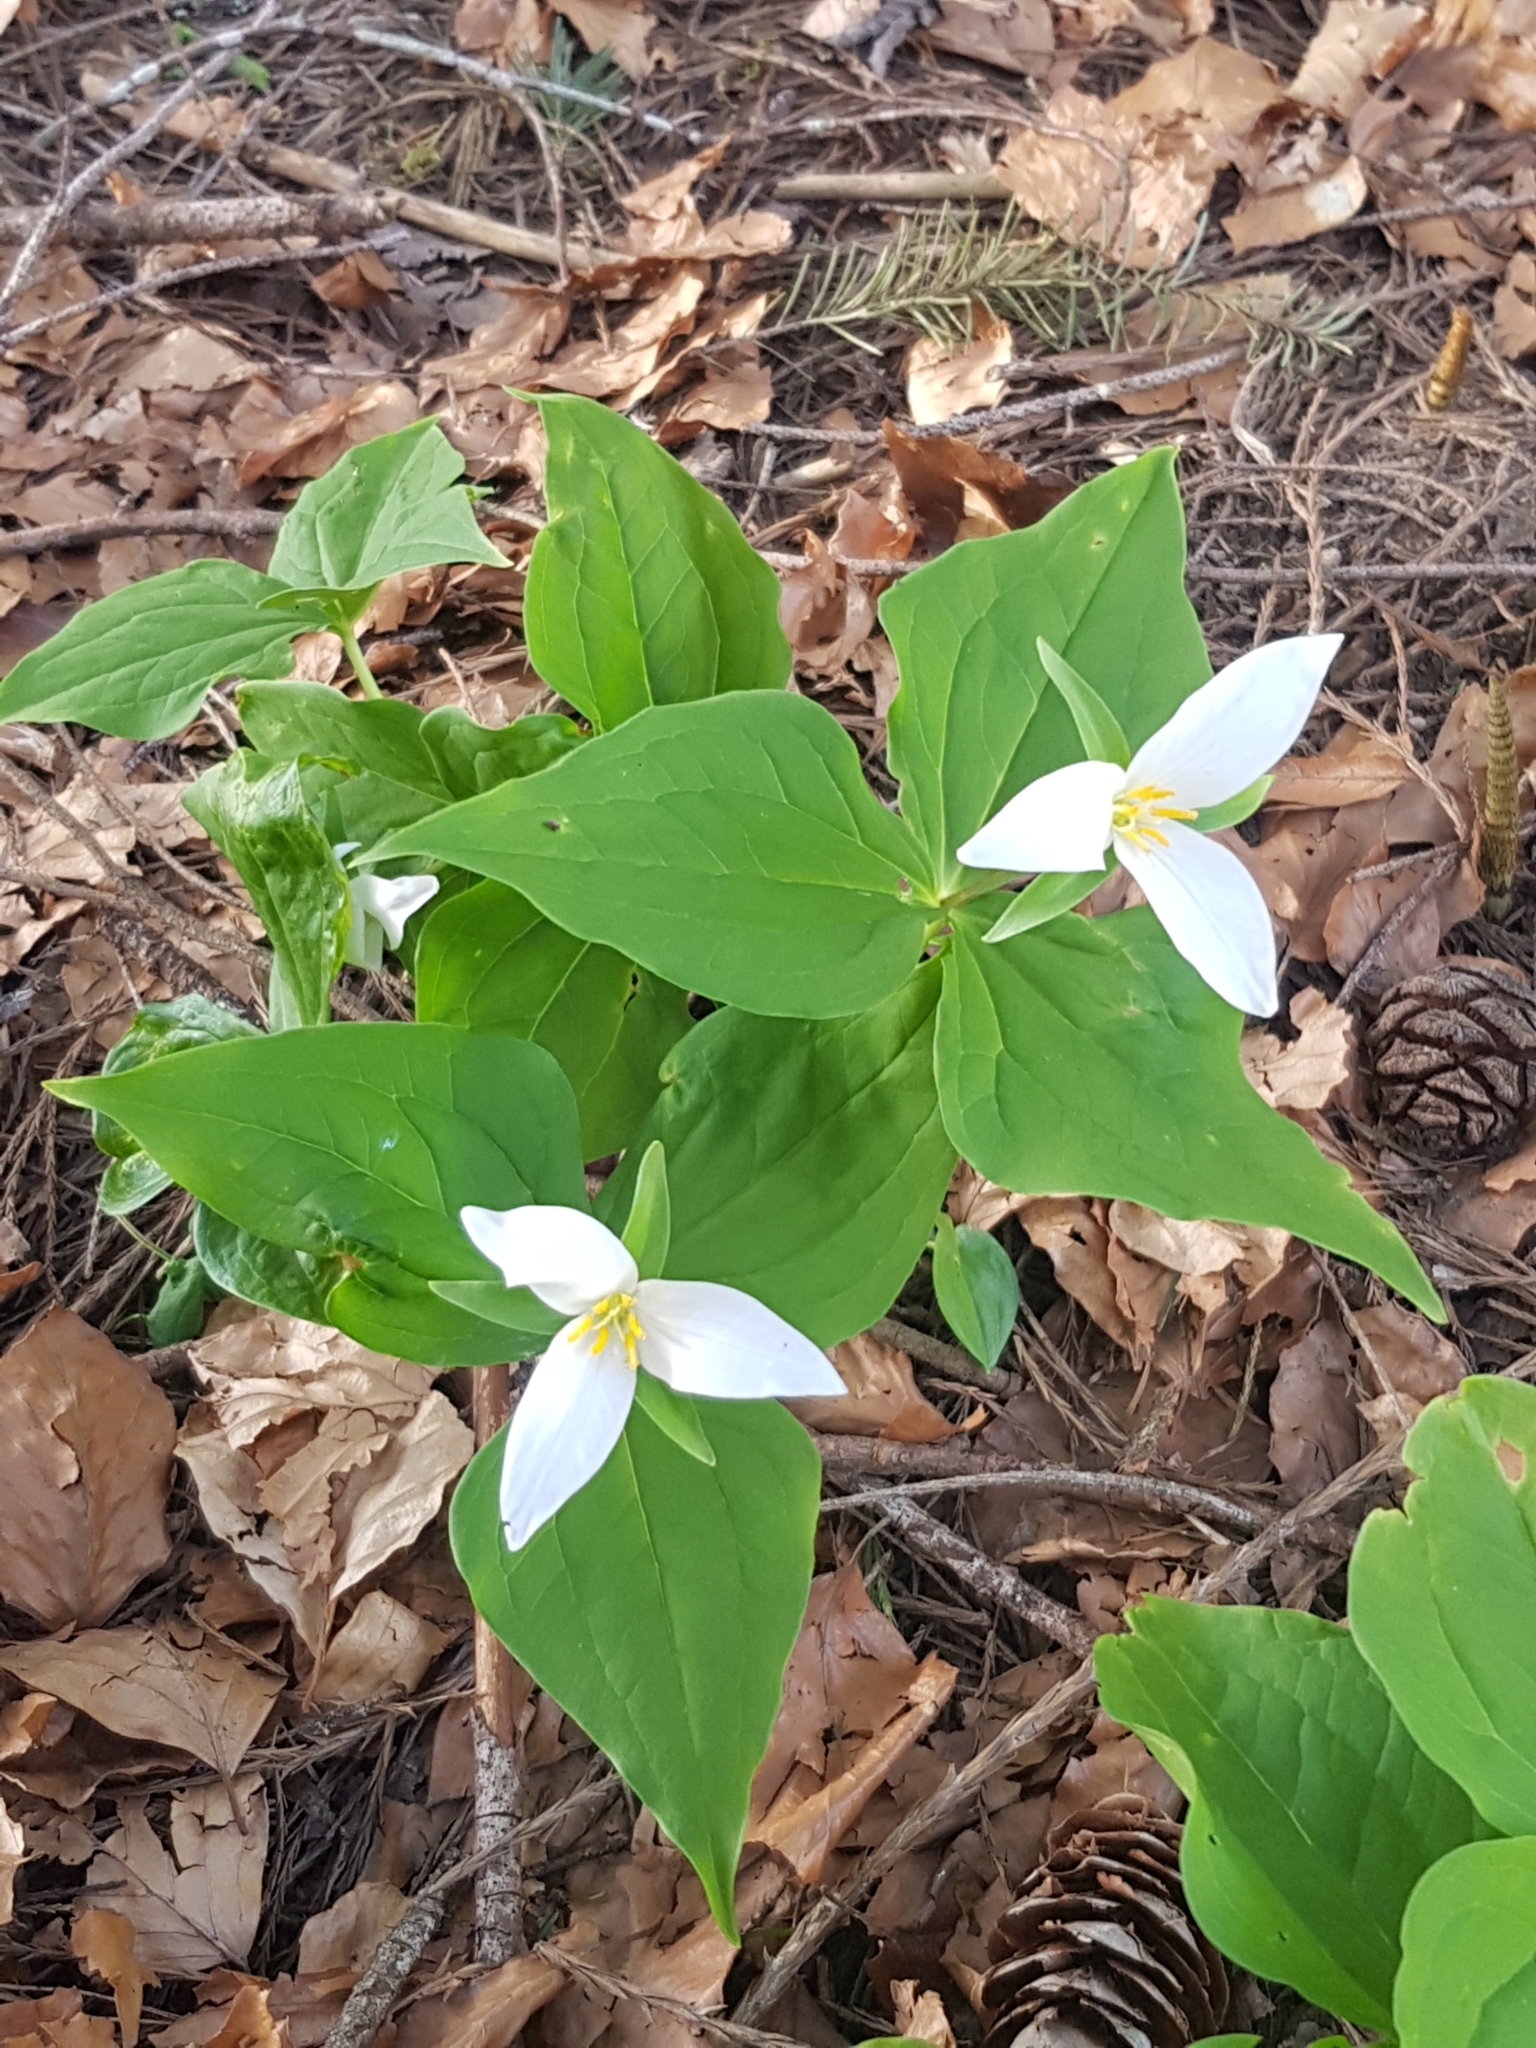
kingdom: Plantae
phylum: Tracheophyta
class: Liliopsida
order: Liliales
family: Melanthiaceae
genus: Trillium
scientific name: Trillium ovatum
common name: Pacific trillium
